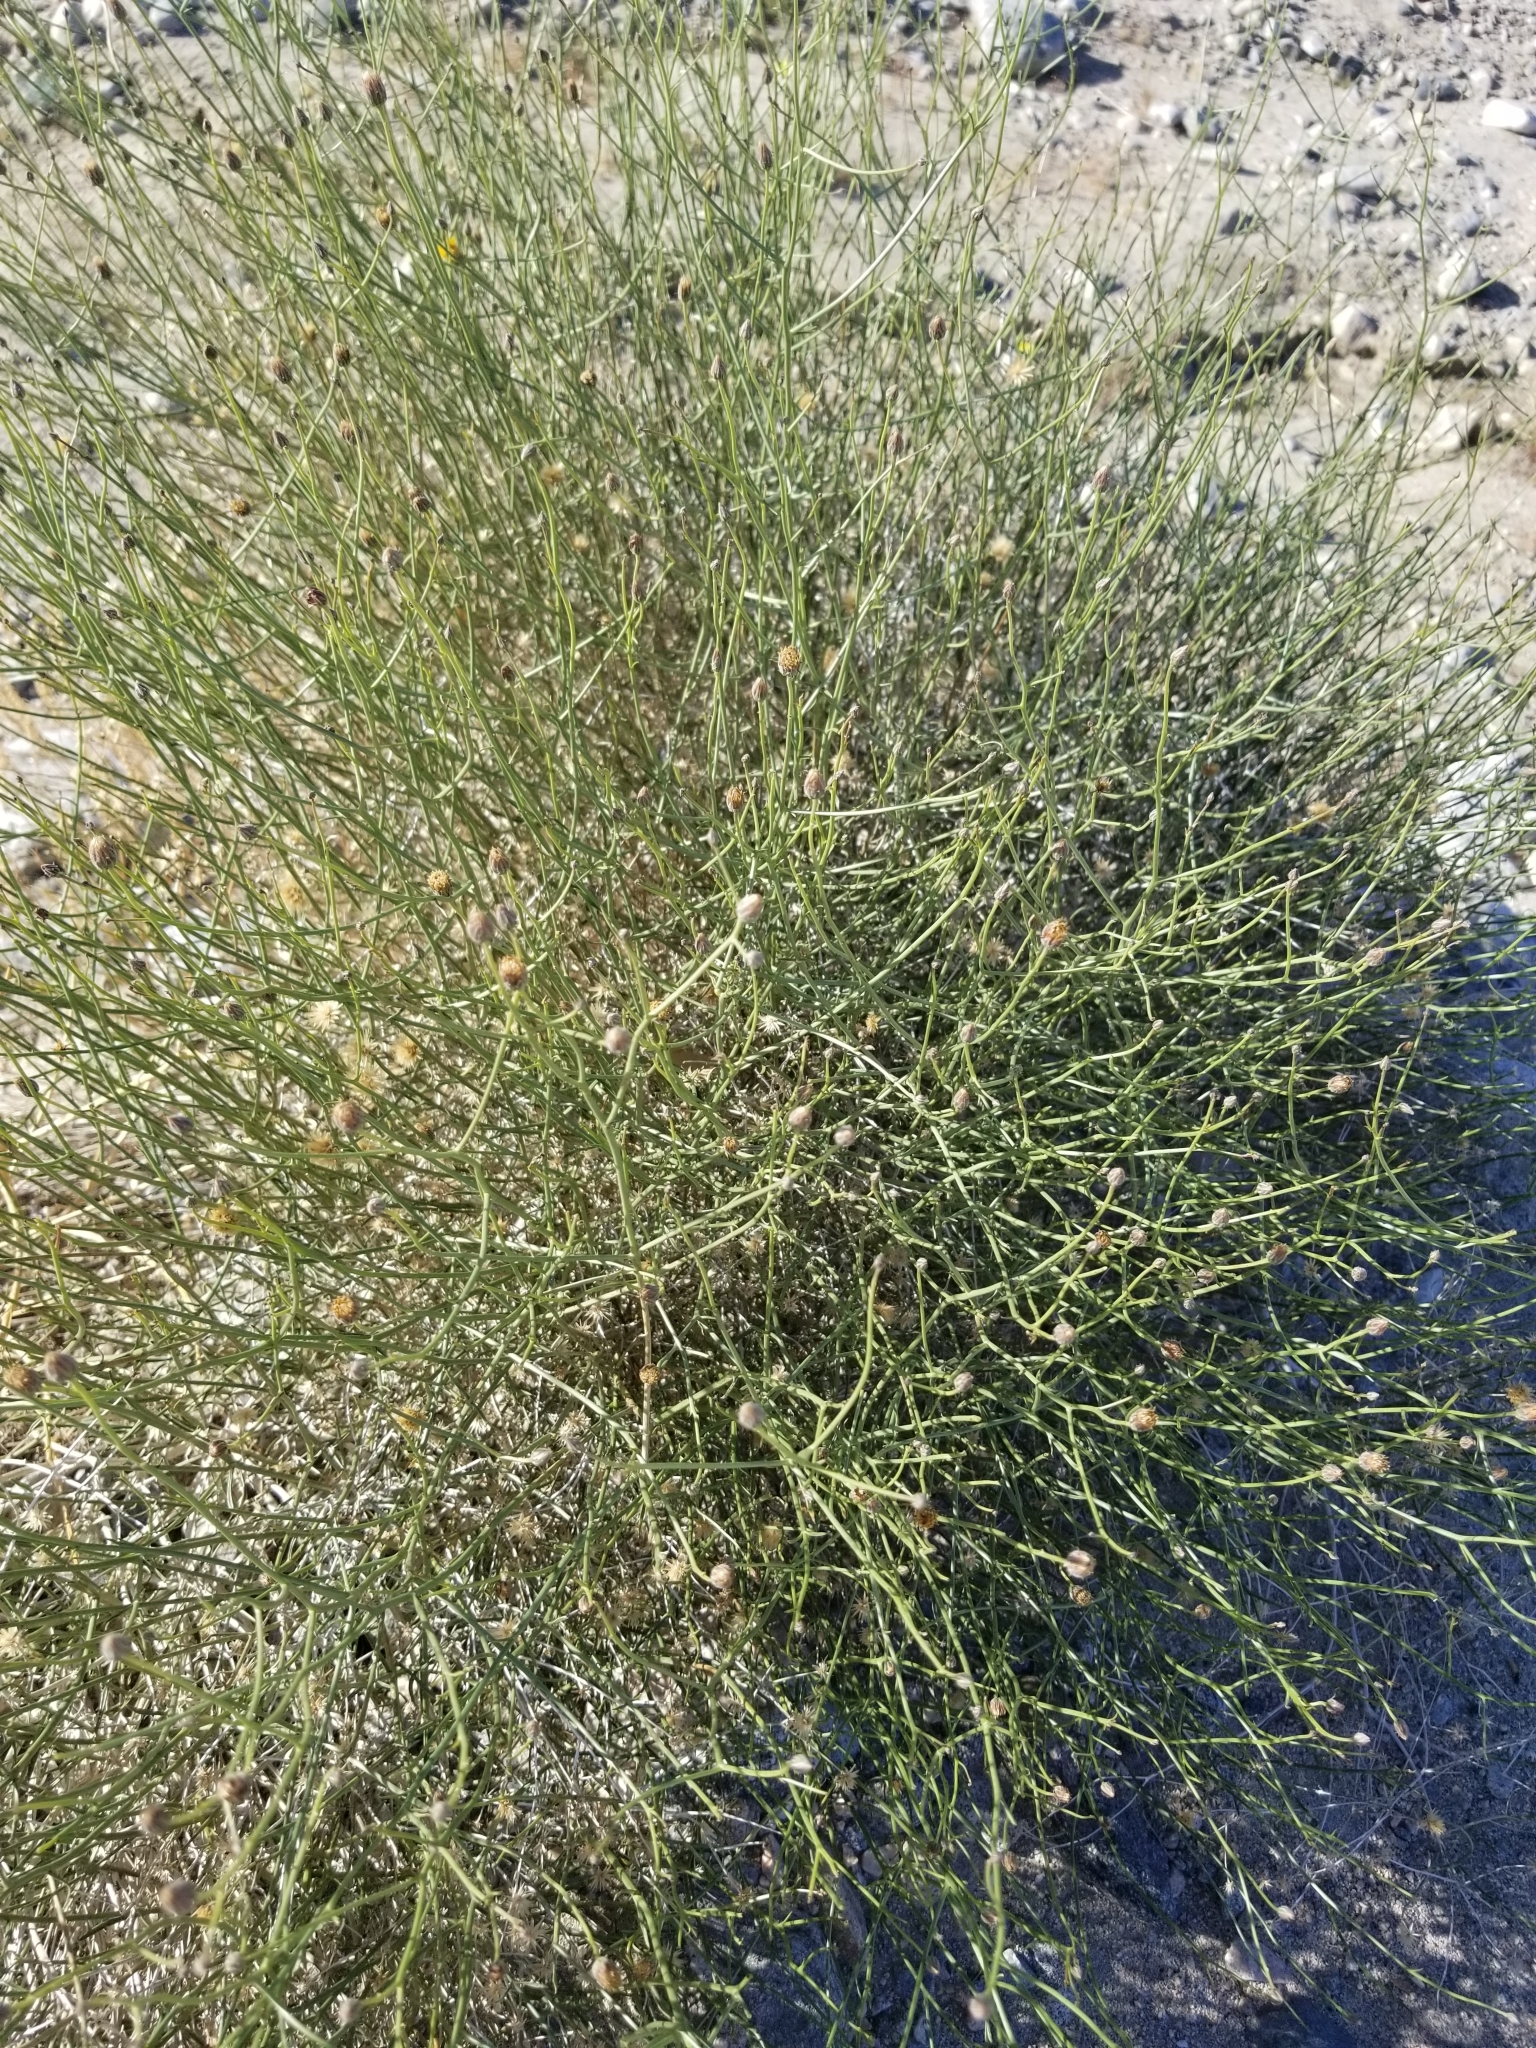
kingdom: Plantae
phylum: Tracheophyta
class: Magnoliopsida
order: Asterales
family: Asteraceae
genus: Bebbia
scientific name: Bebbia juncea
